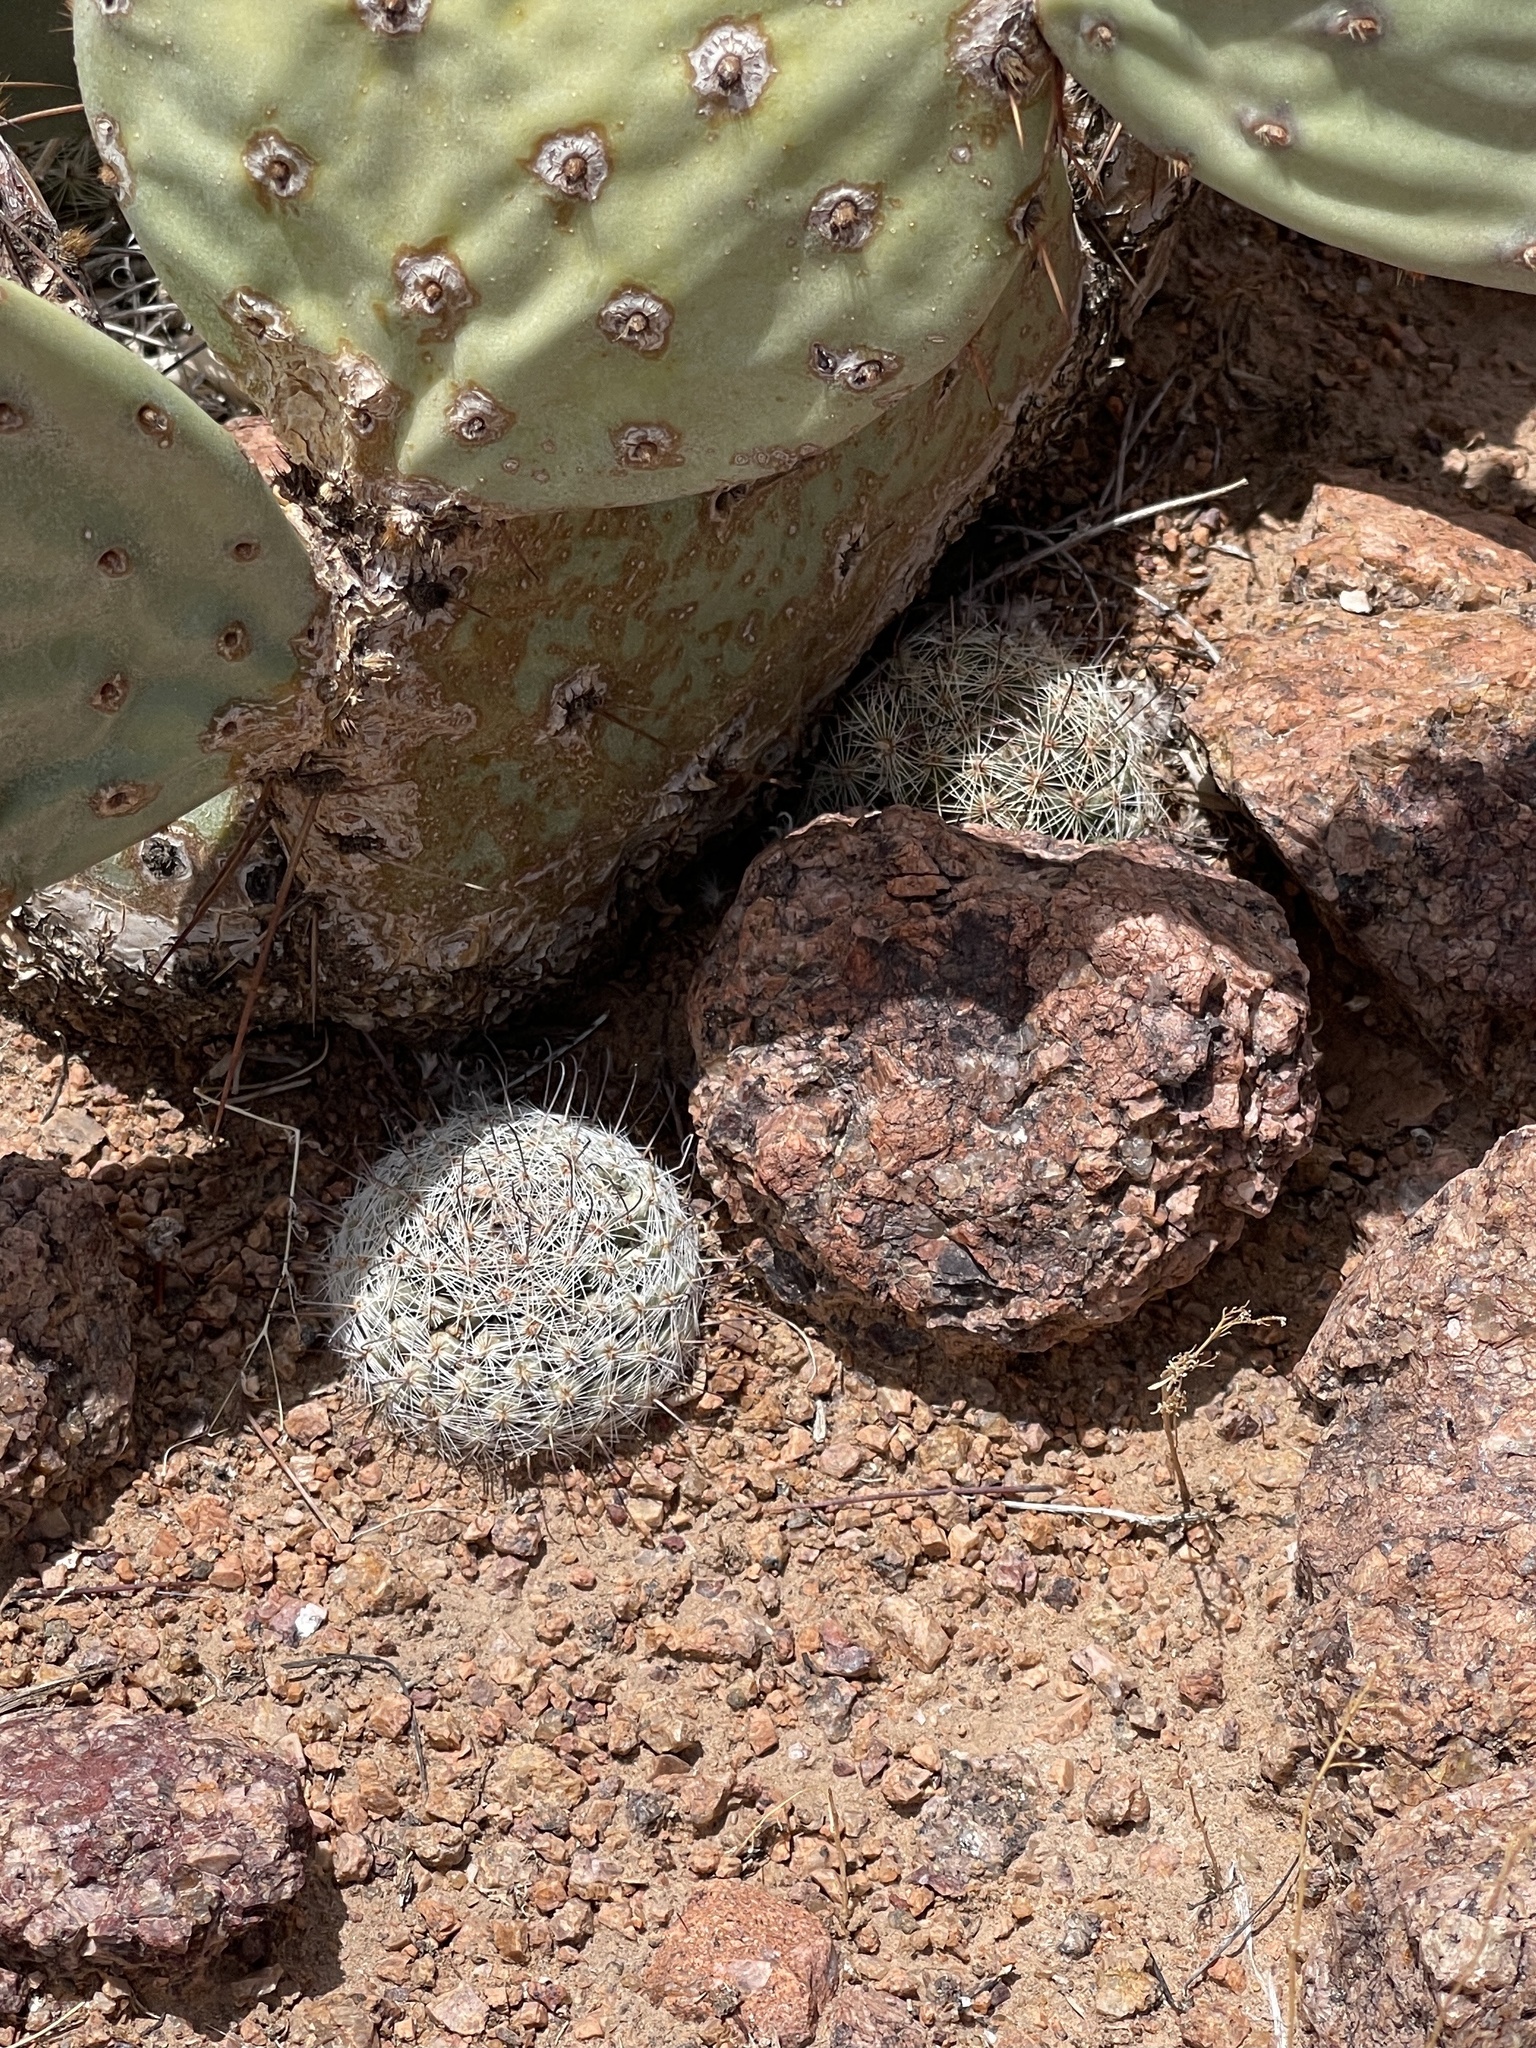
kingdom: Plantae
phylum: Tracheophyta
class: Magnoliopsida
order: Caryophyllales
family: Cactaceae
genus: Cochemiea
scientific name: Cochemiea grahamii
